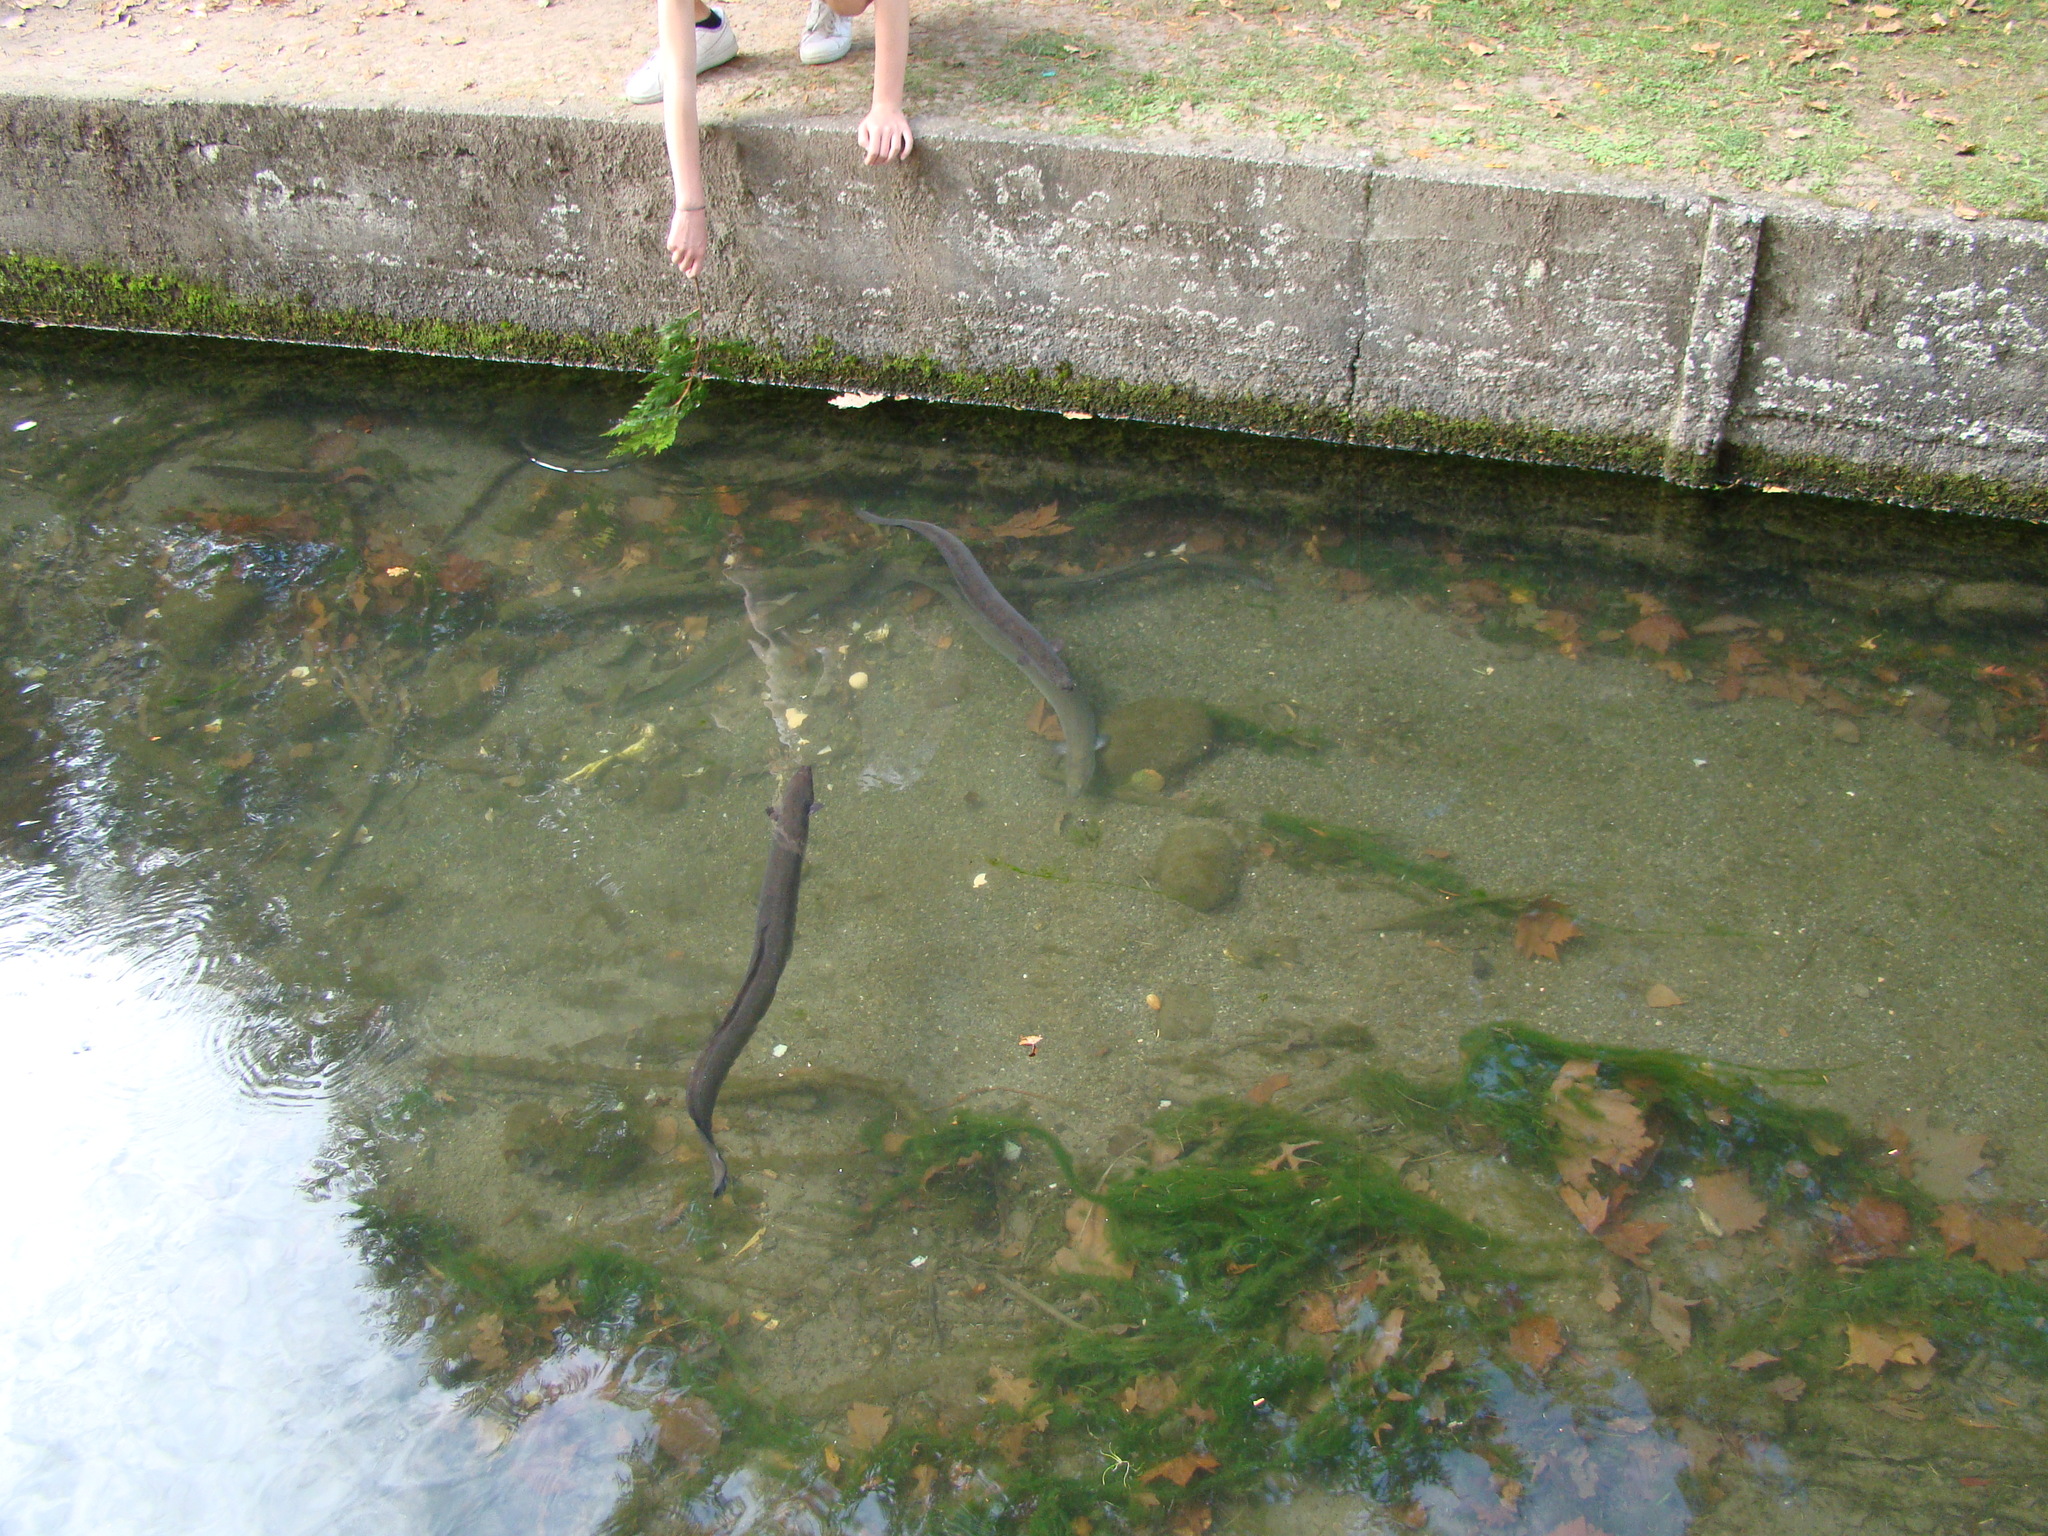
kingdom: Animalia
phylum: Chordata
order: Anguilliformes
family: Anguillidae
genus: Anguilla
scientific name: Anguilla australis
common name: Shortfin eel
